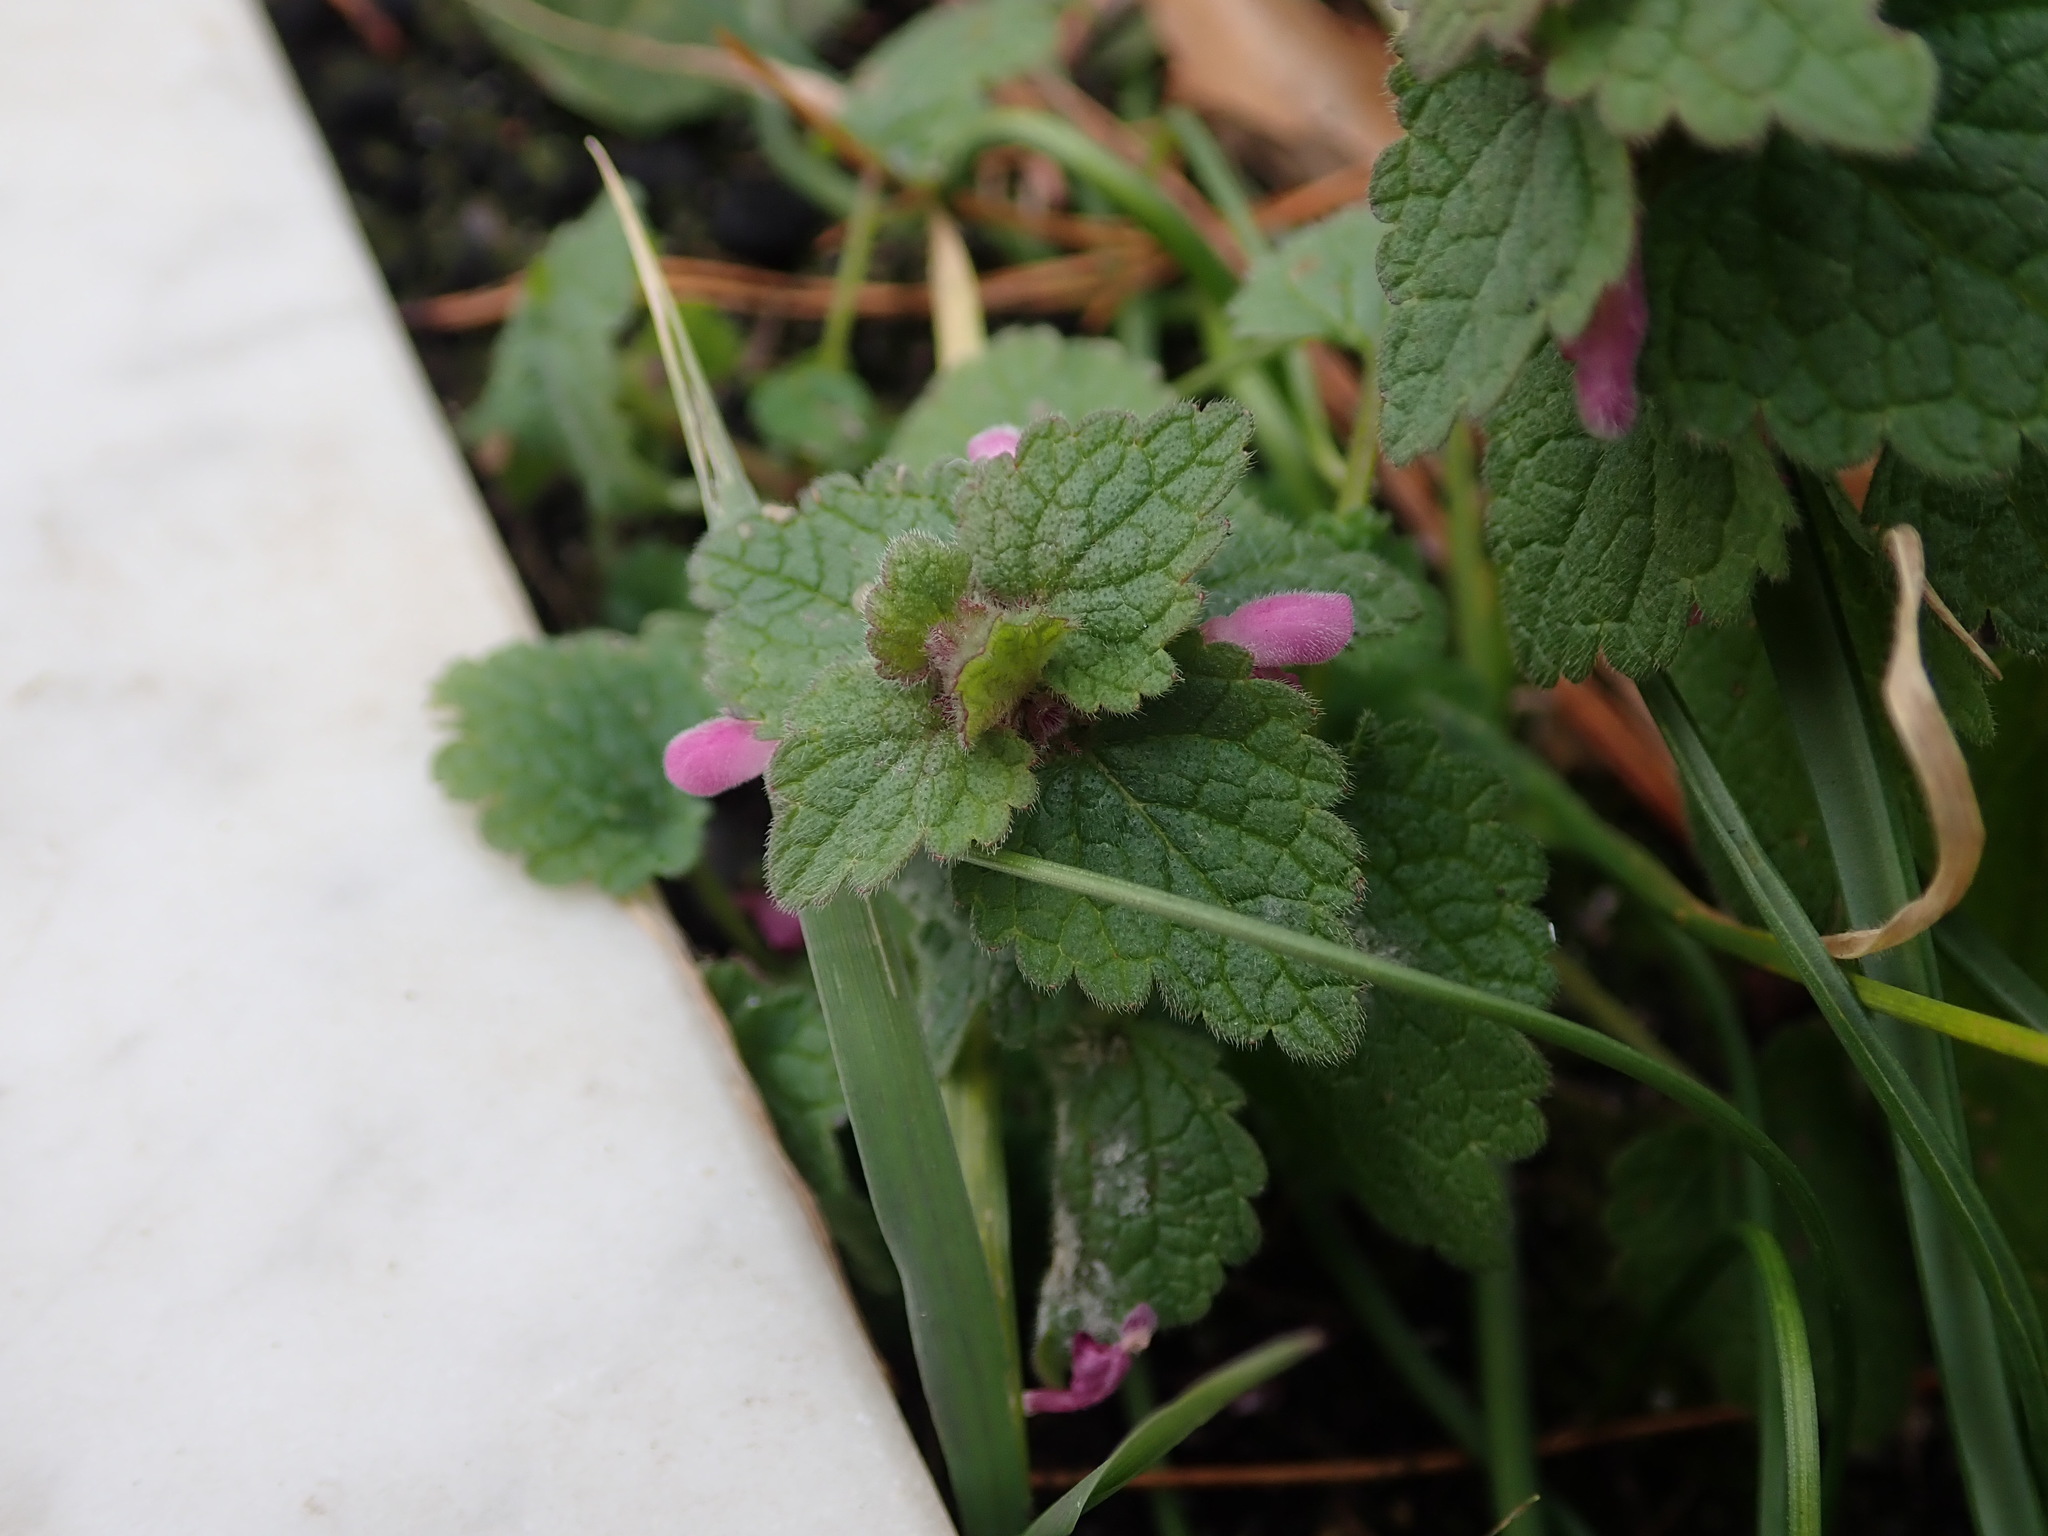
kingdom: Plantae
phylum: Tracheophyta
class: Magnoliopsida
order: Lamiales
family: Lamiaceae
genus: Lamium
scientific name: Lamium purpureum
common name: Red dead-nettle
